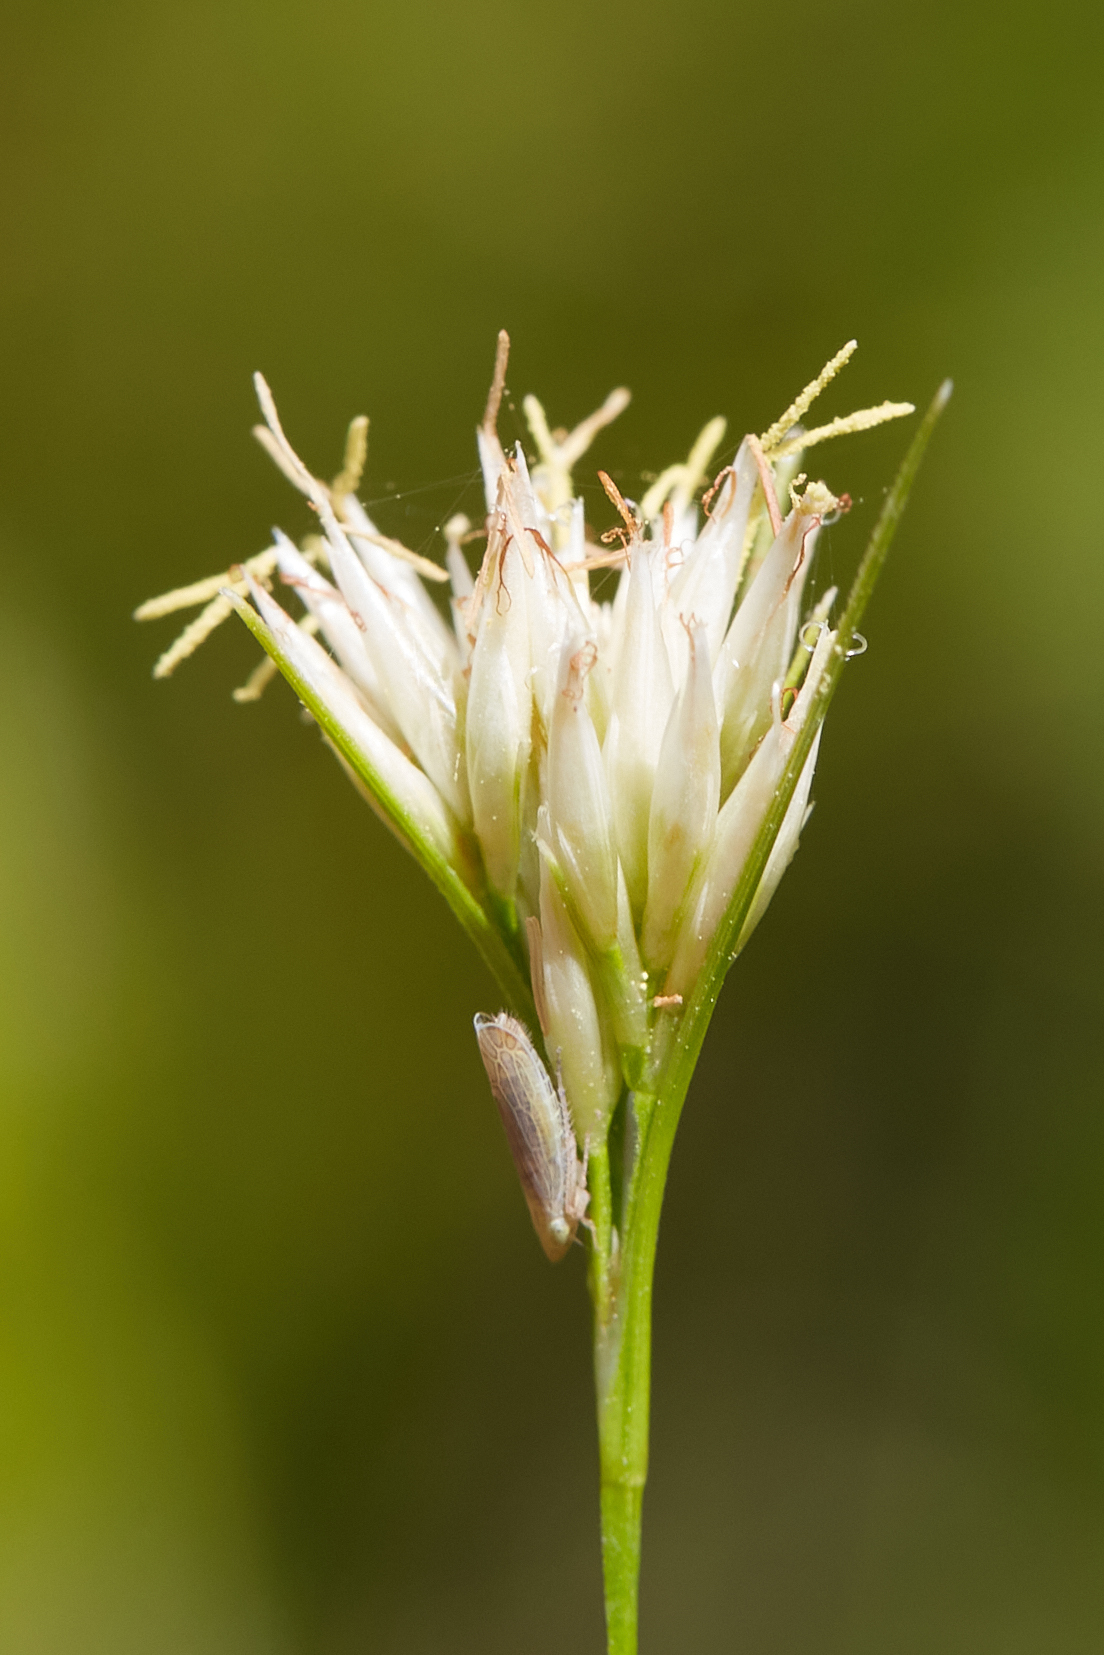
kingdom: Plantae
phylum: Tracheophyta
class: Liliopsida
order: Poales
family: Cyperaceae
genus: Rhynchospora
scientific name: Rhynchospora alba
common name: White beak-sedge
